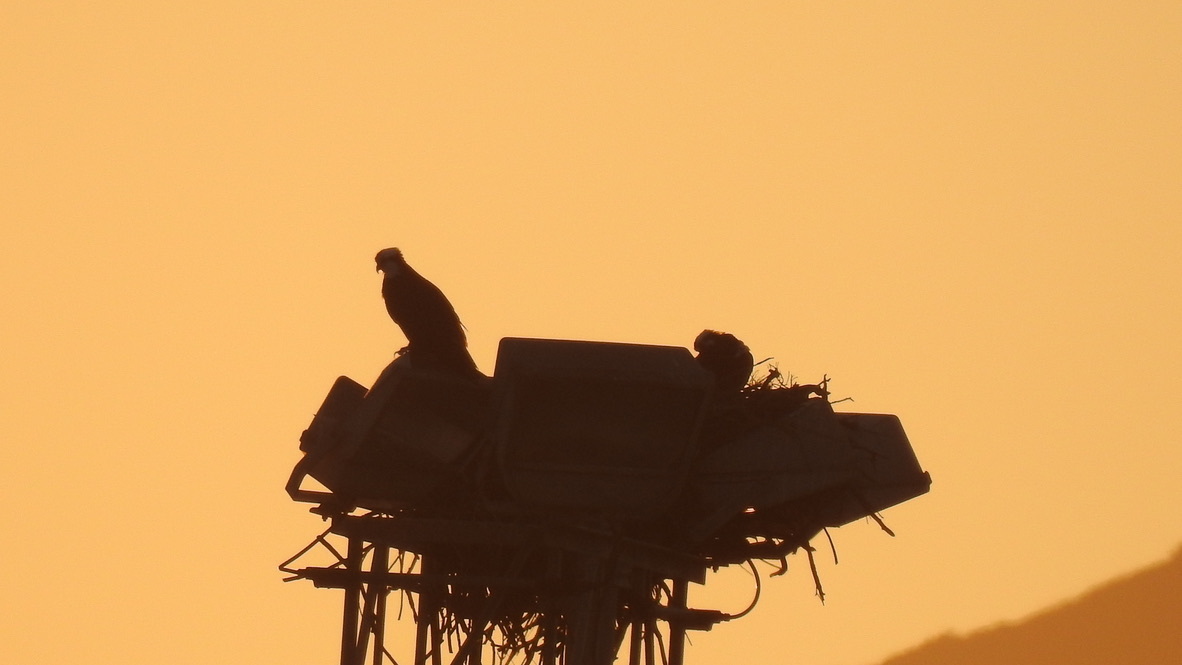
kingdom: Animalia
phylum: Chordata
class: Aves
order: Accipitriformes
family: Pandionidae
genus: Pandion
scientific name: Pandion haliaetus
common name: Osprey
